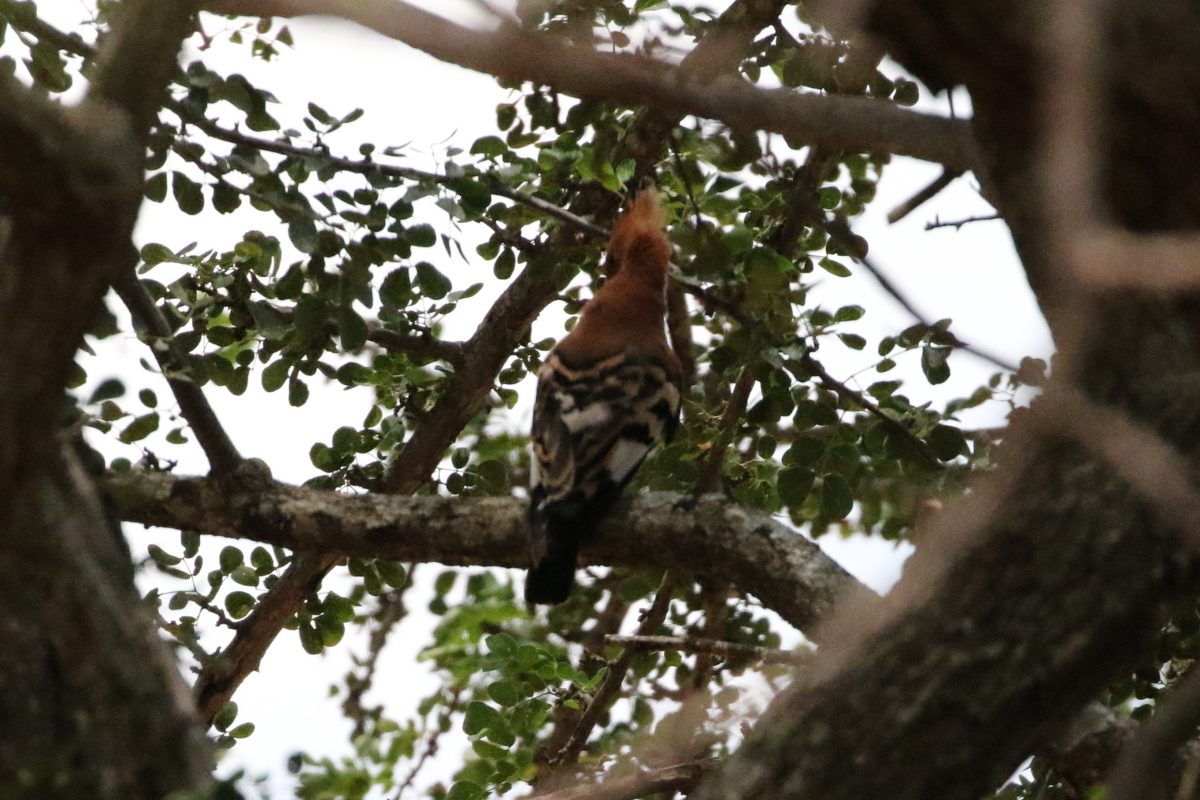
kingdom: Animalia
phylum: Chordata
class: Aves
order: Bucerotiformes
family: Upupidae
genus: Upupa
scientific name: Upupa epops
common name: Eurasian hoopoe
